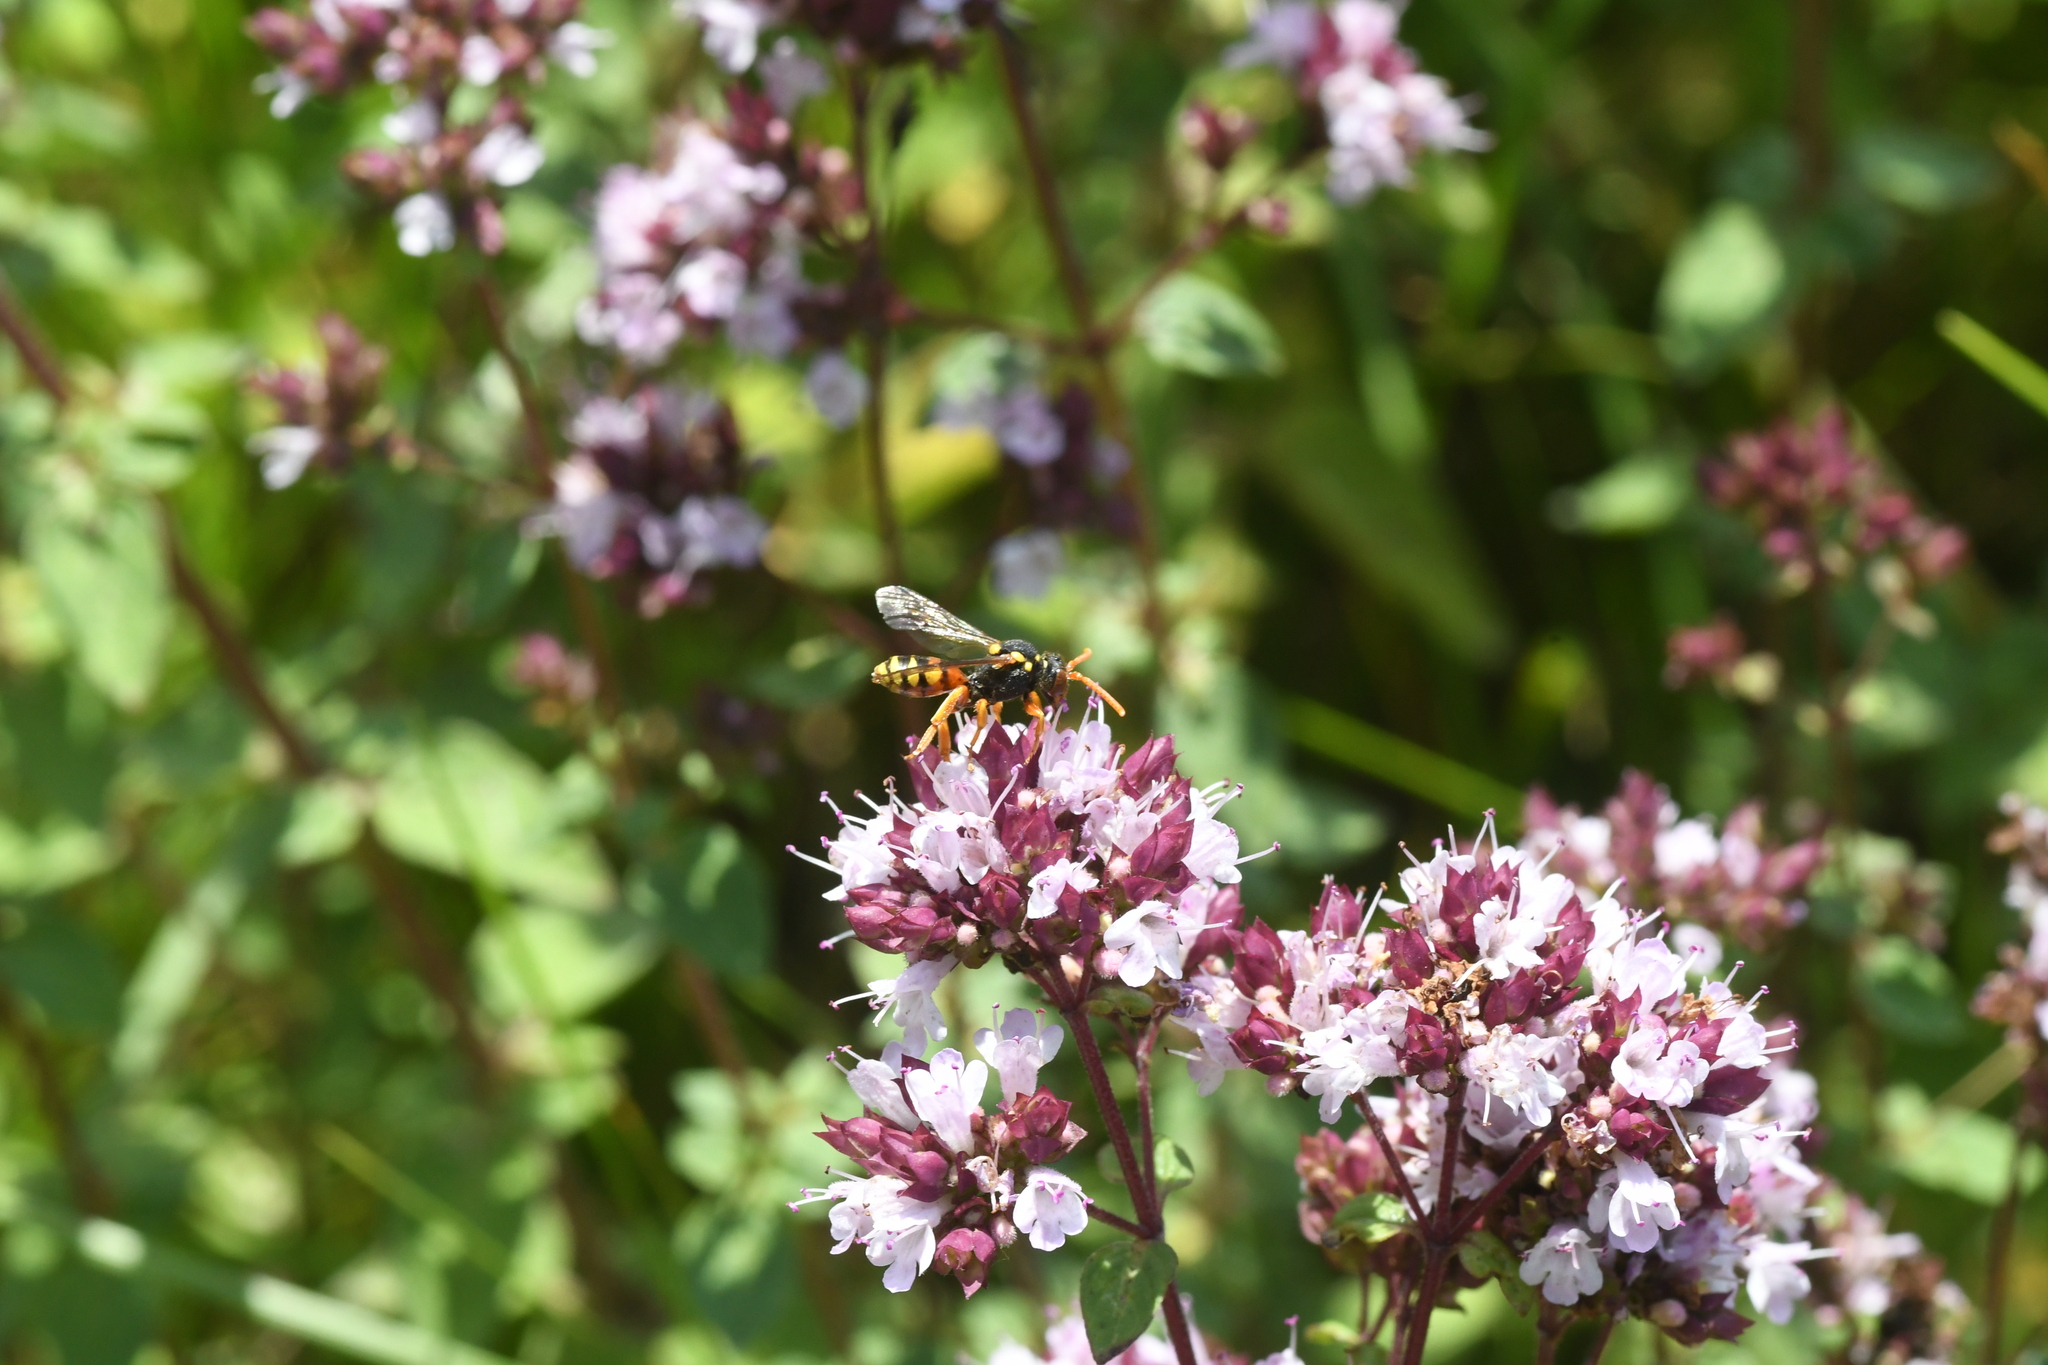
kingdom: Animalia
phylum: Arthropoda
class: Insecta
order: Hymenoptera
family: Apidae
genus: Nomada
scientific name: Nomada fucata
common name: Painted nomad bee
